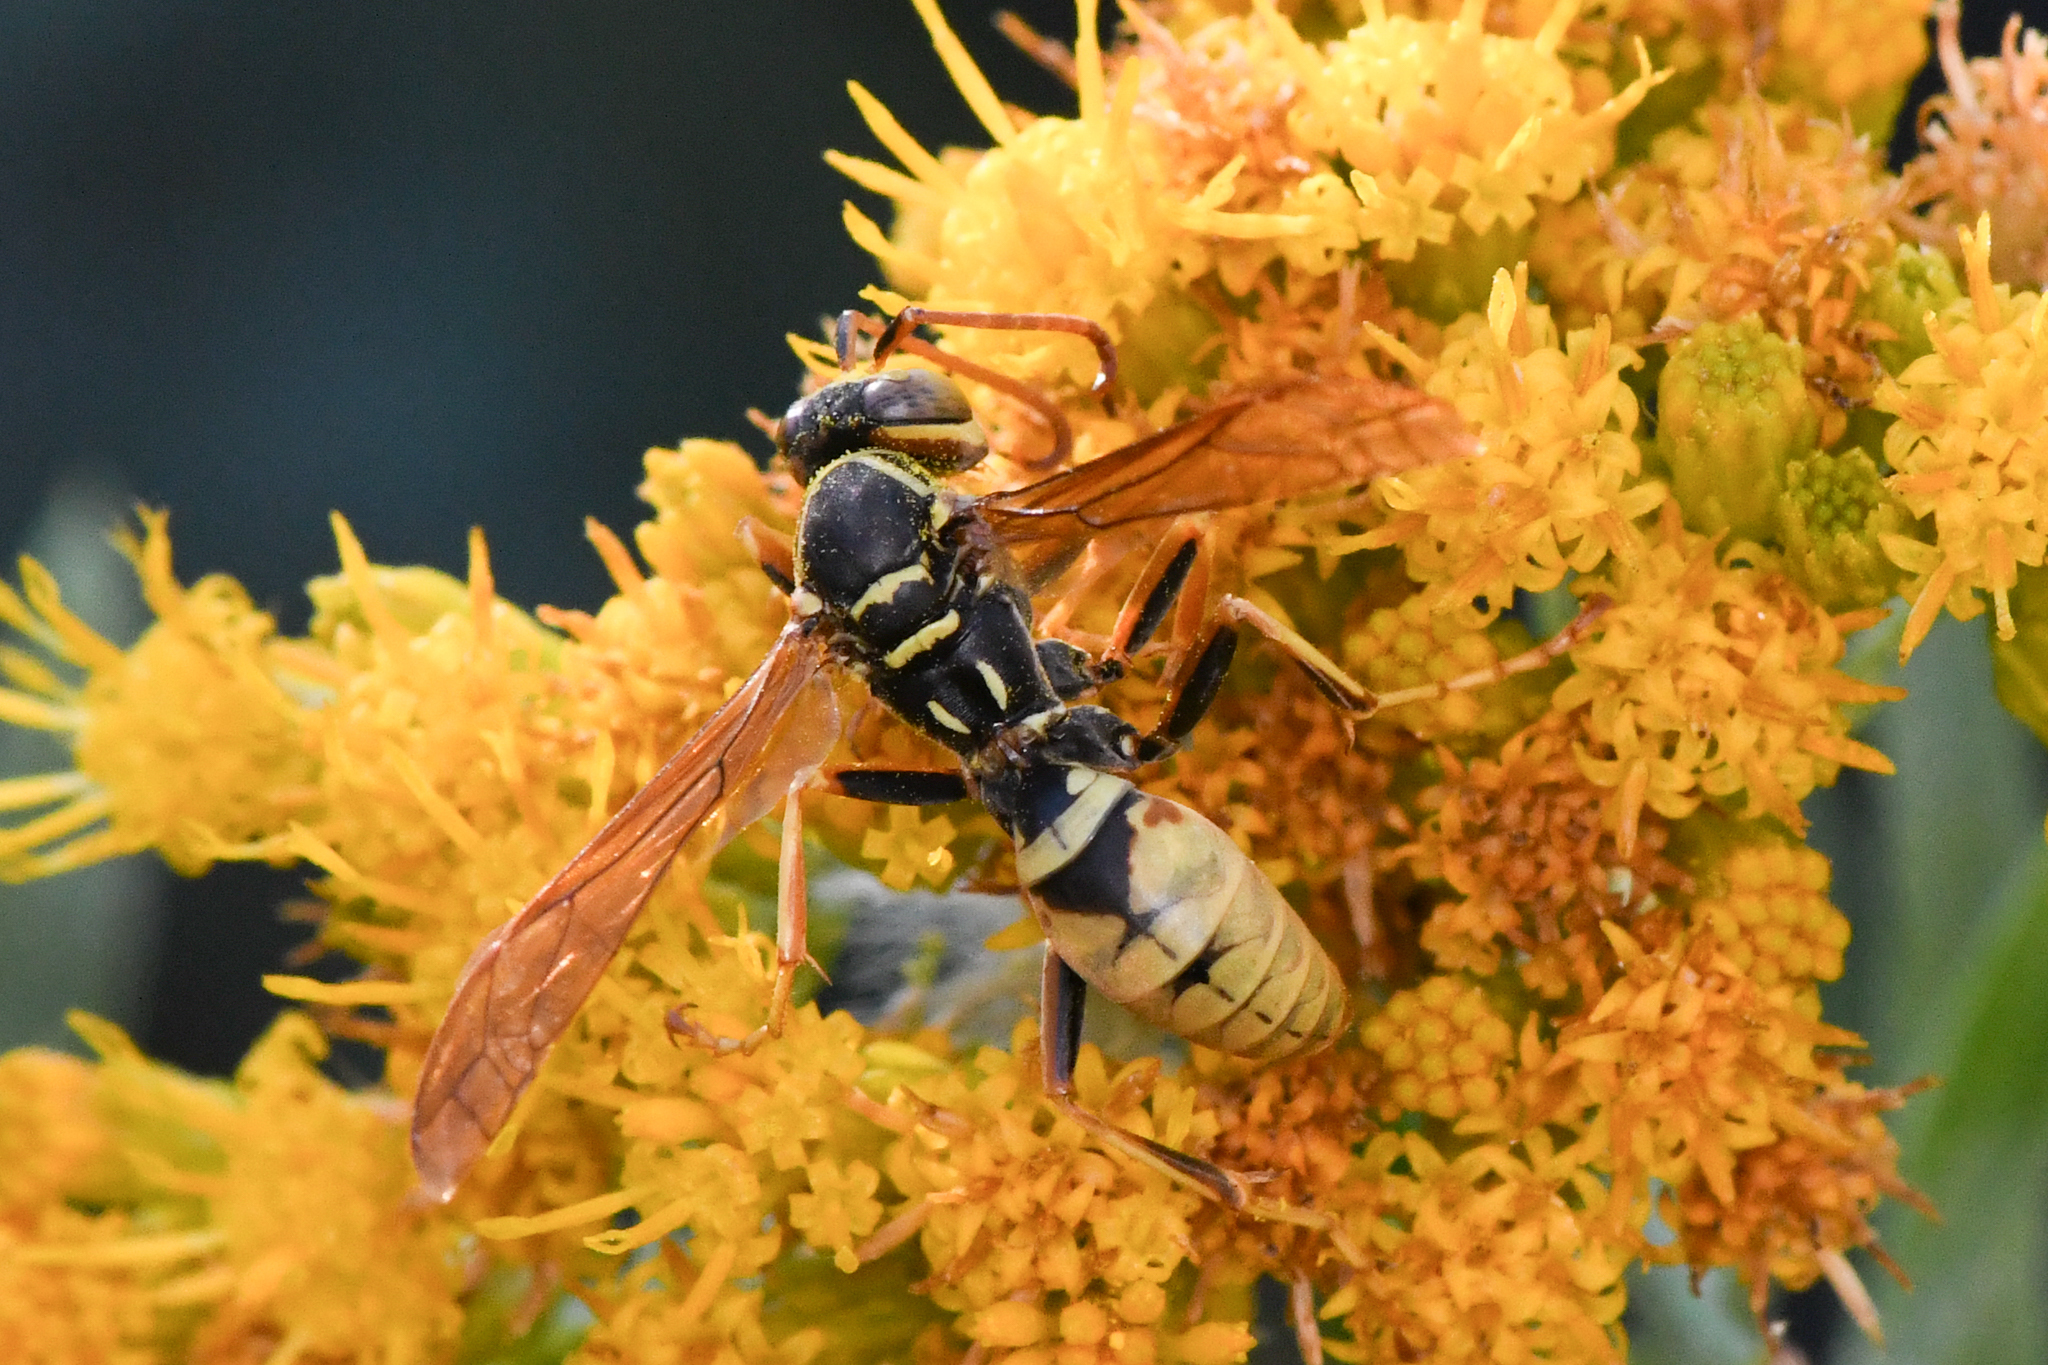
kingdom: Animalia
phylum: Arthropoda
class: Insecta
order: Hymenoptera
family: Eumenidae
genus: Polistes
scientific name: Polistes aurifer
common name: Paper wasp
